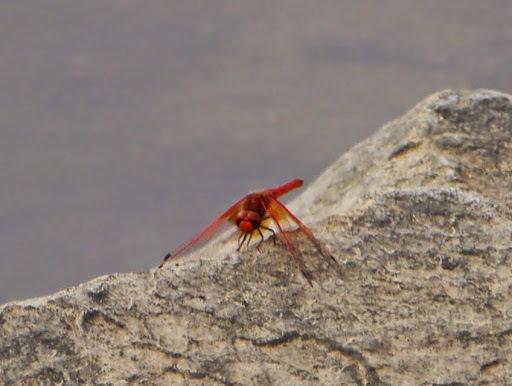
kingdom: Animalia
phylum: Arthropoda
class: Insecta
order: Odonata
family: Libellulidae
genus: Trithemis
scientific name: Trithemis kirbyi
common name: Kirby's dropwing
